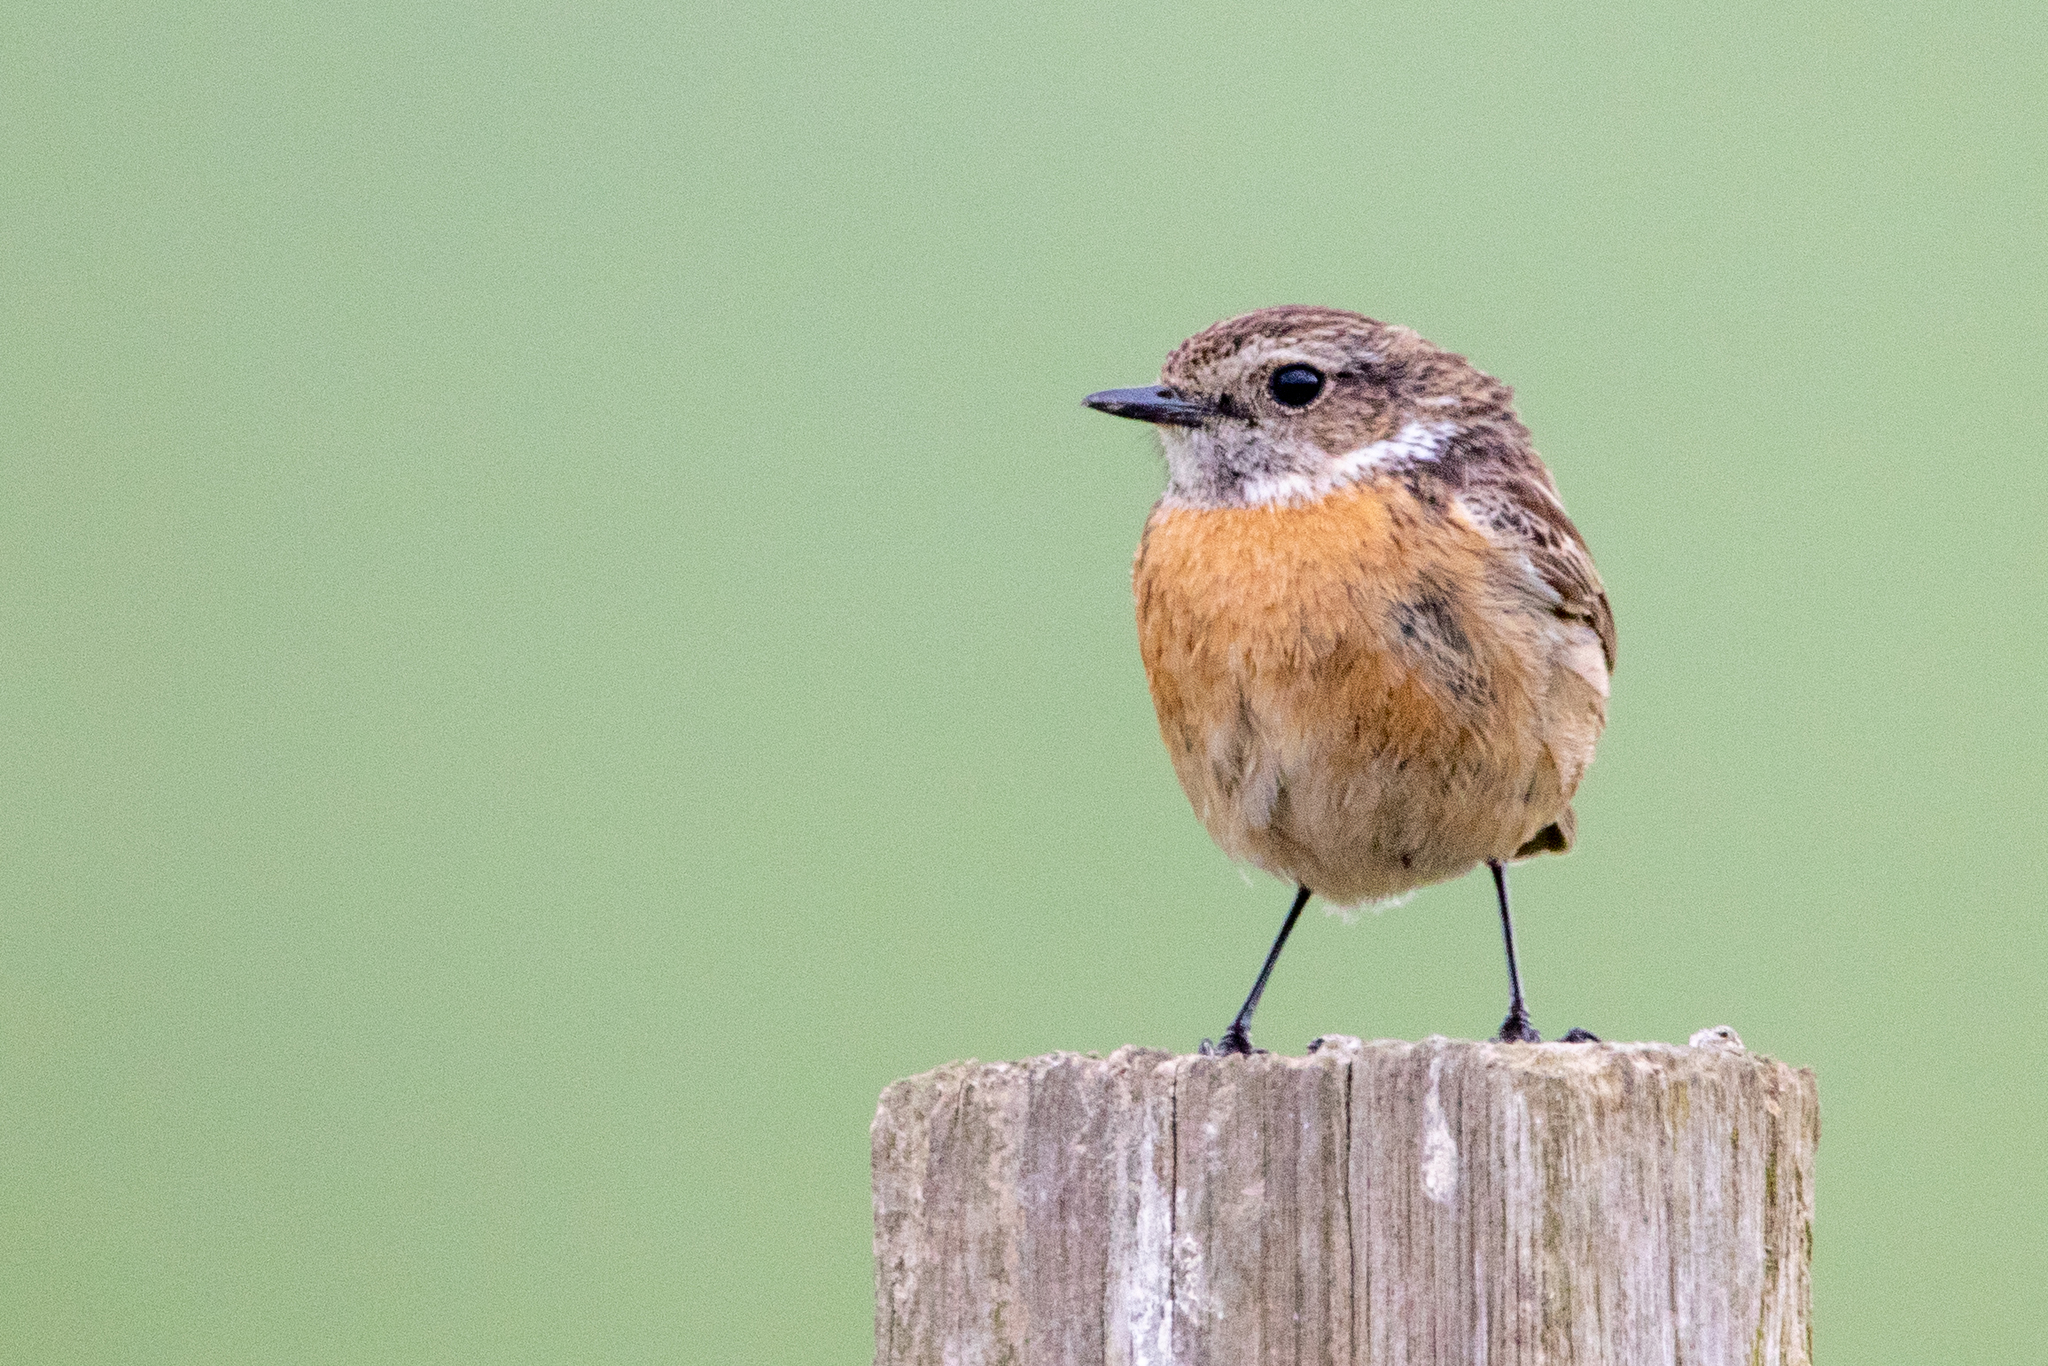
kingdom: Animalia
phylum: Chordata
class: Aves
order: Passeriformes
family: Muscicapidae
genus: Saxicola
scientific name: Saxicola rubicola
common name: European stonechat
